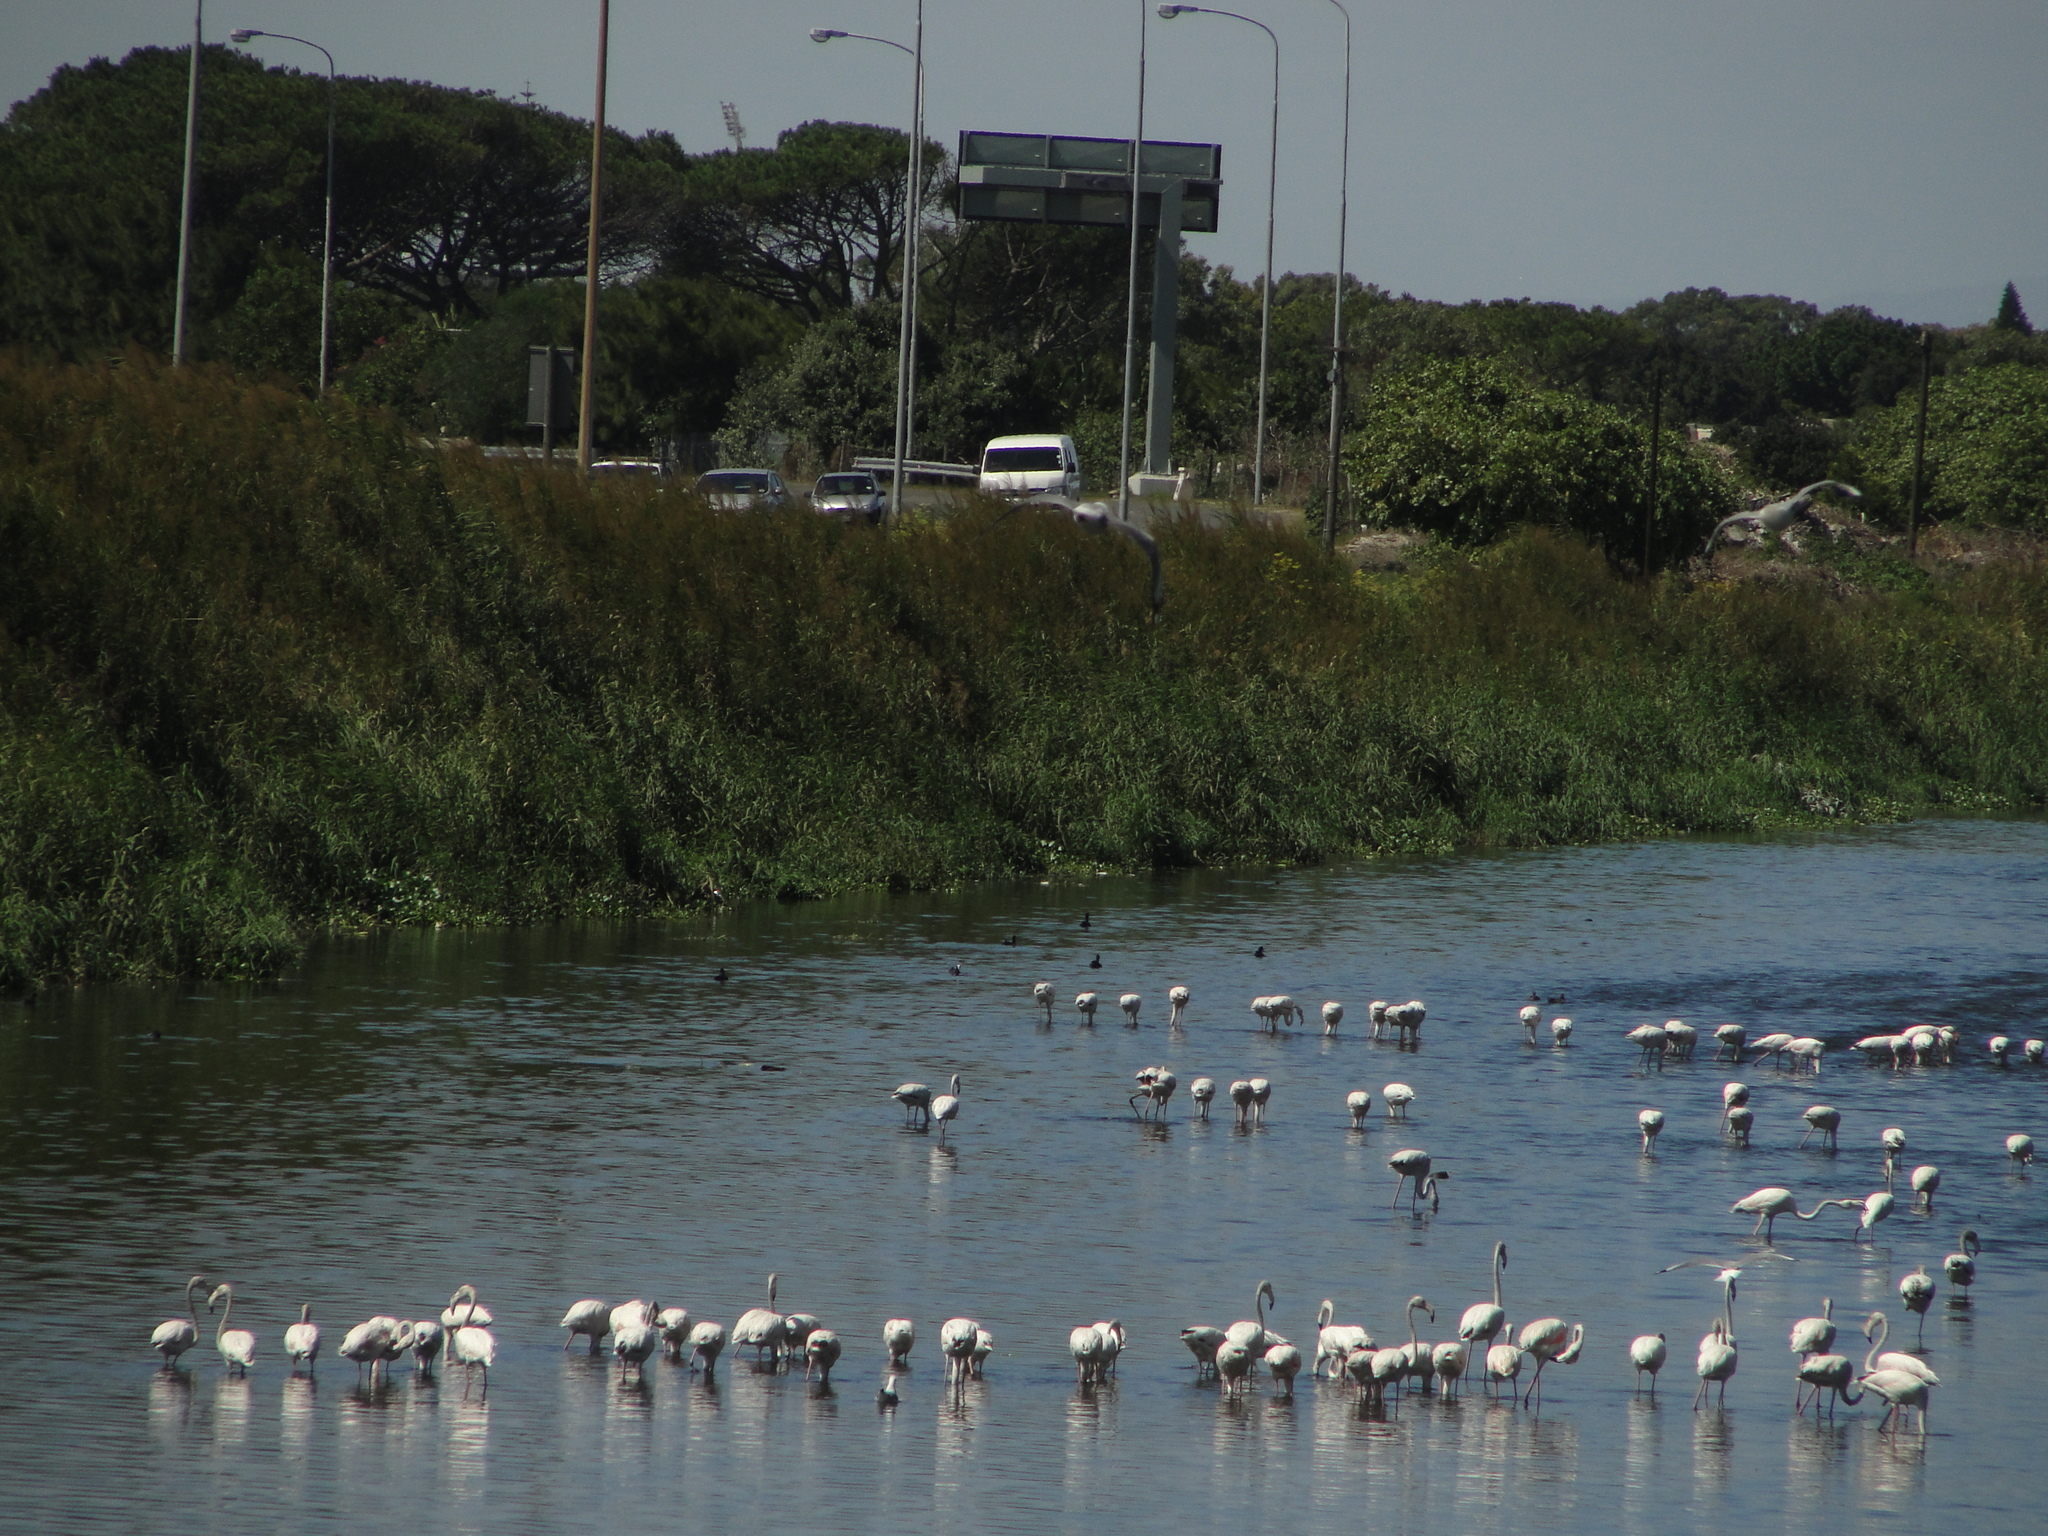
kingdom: Animalia
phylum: Chordata
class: Aves
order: Phoenicopteriformes
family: Phoenicopteridae
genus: Phoenicopterus
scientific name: Phoenicopterus roseus
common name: Greater flamingo
